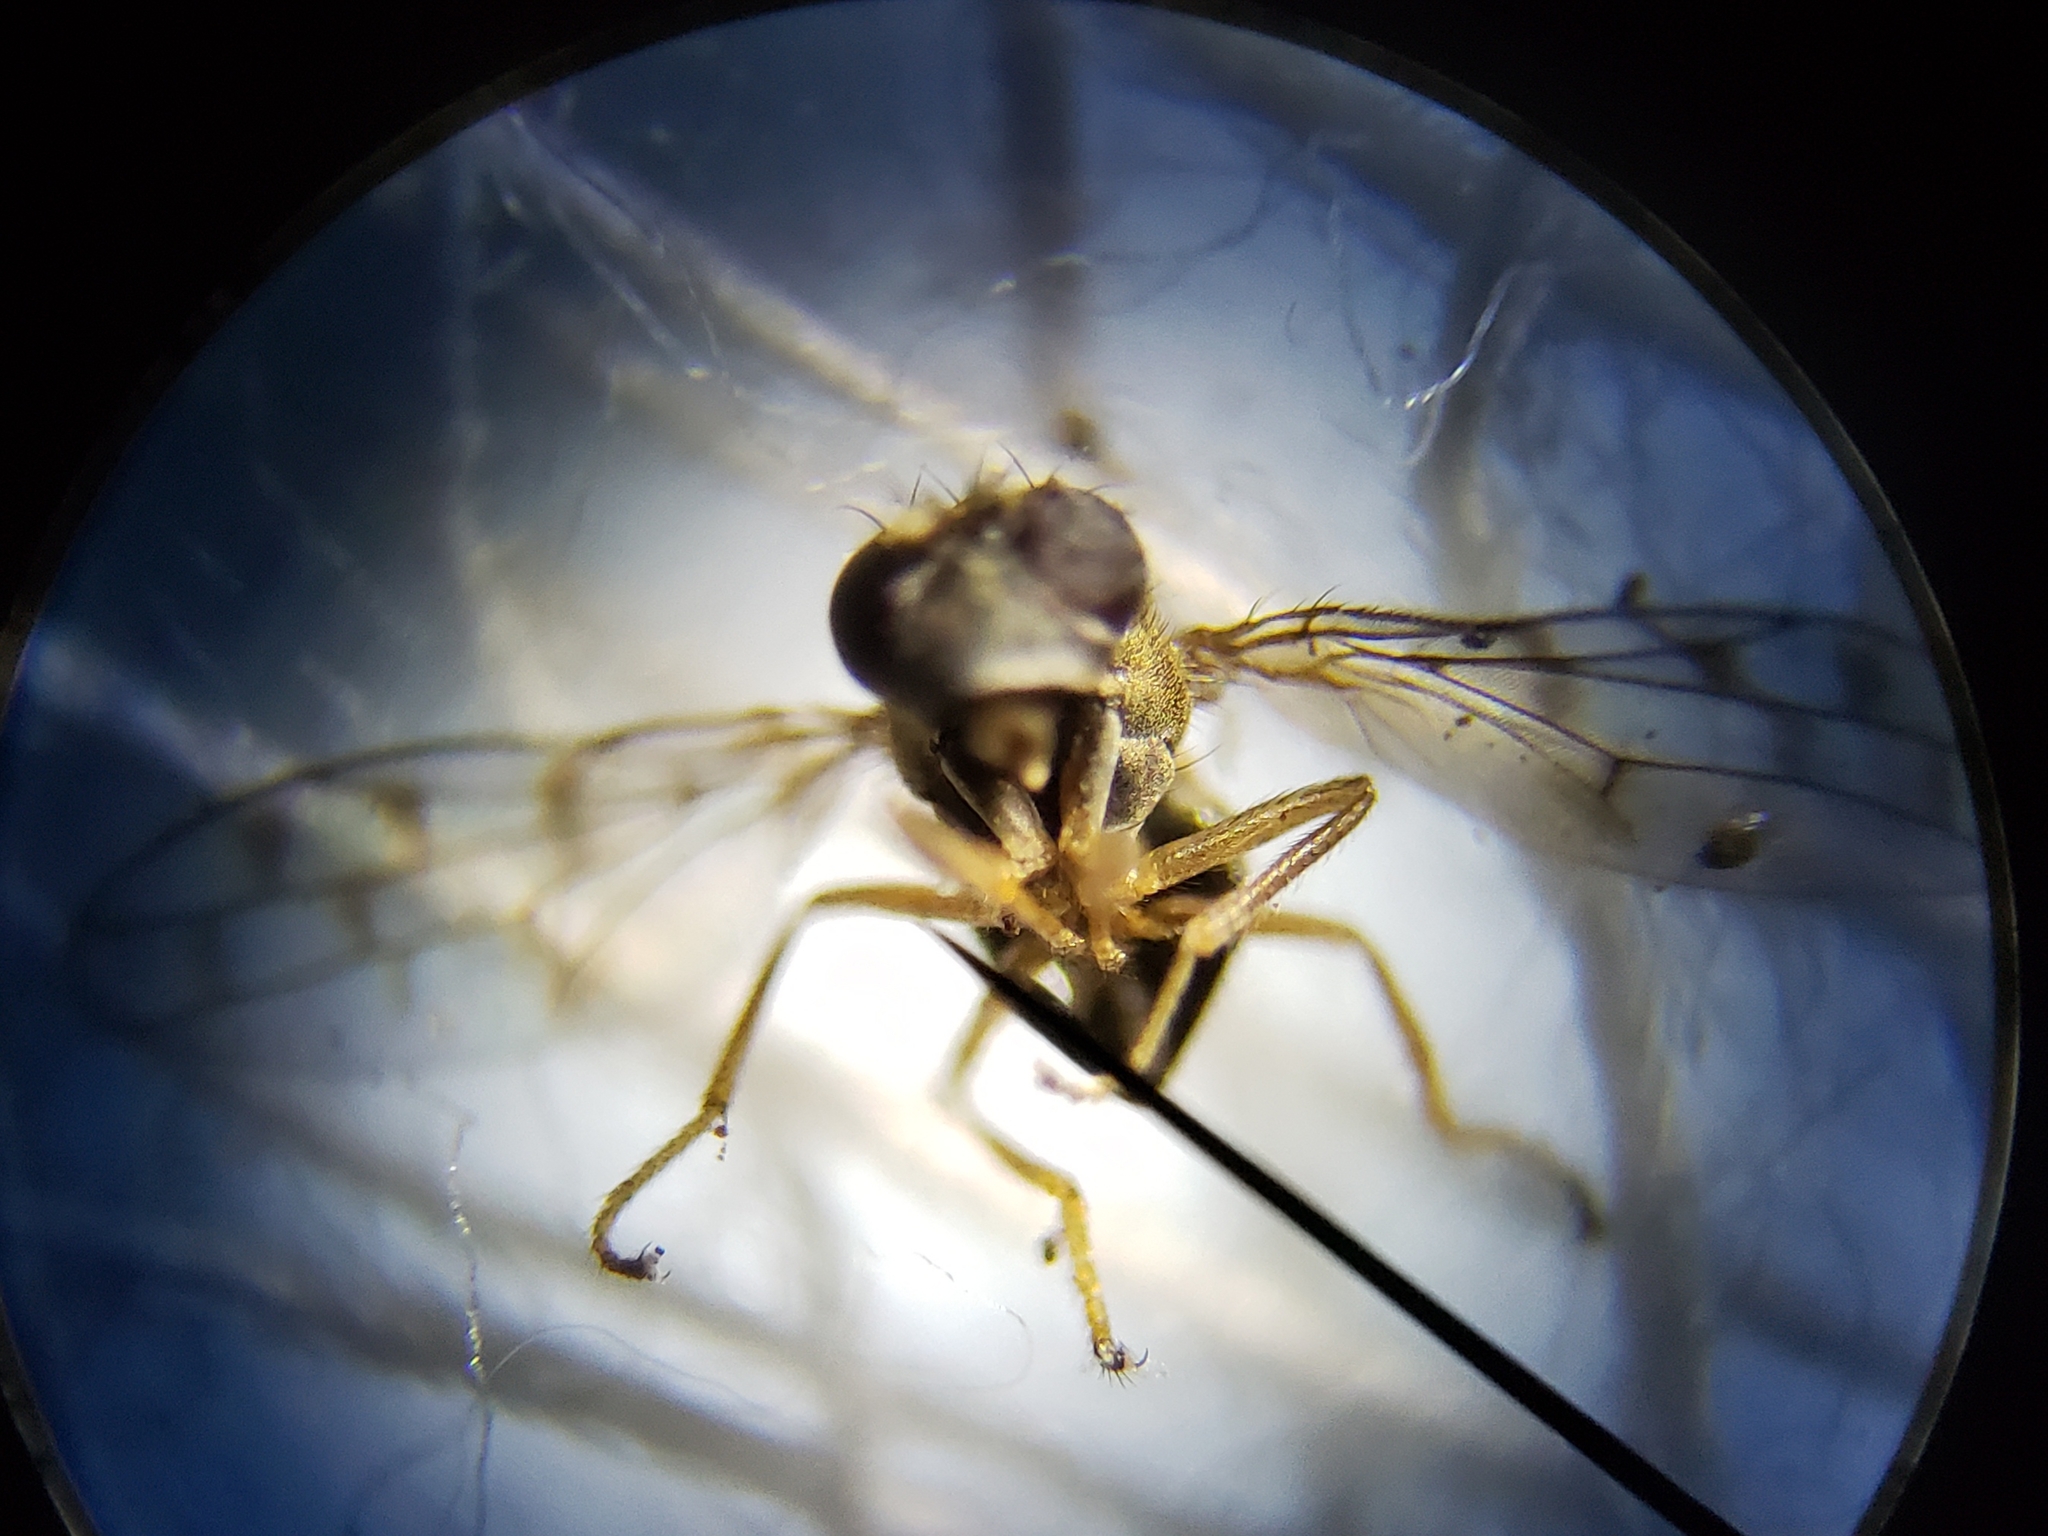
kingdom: Animalia
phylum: Arthropoda
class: Insecta
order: Diptera
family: Ephydridae
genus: Zeros
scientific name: Zeros flavipes
